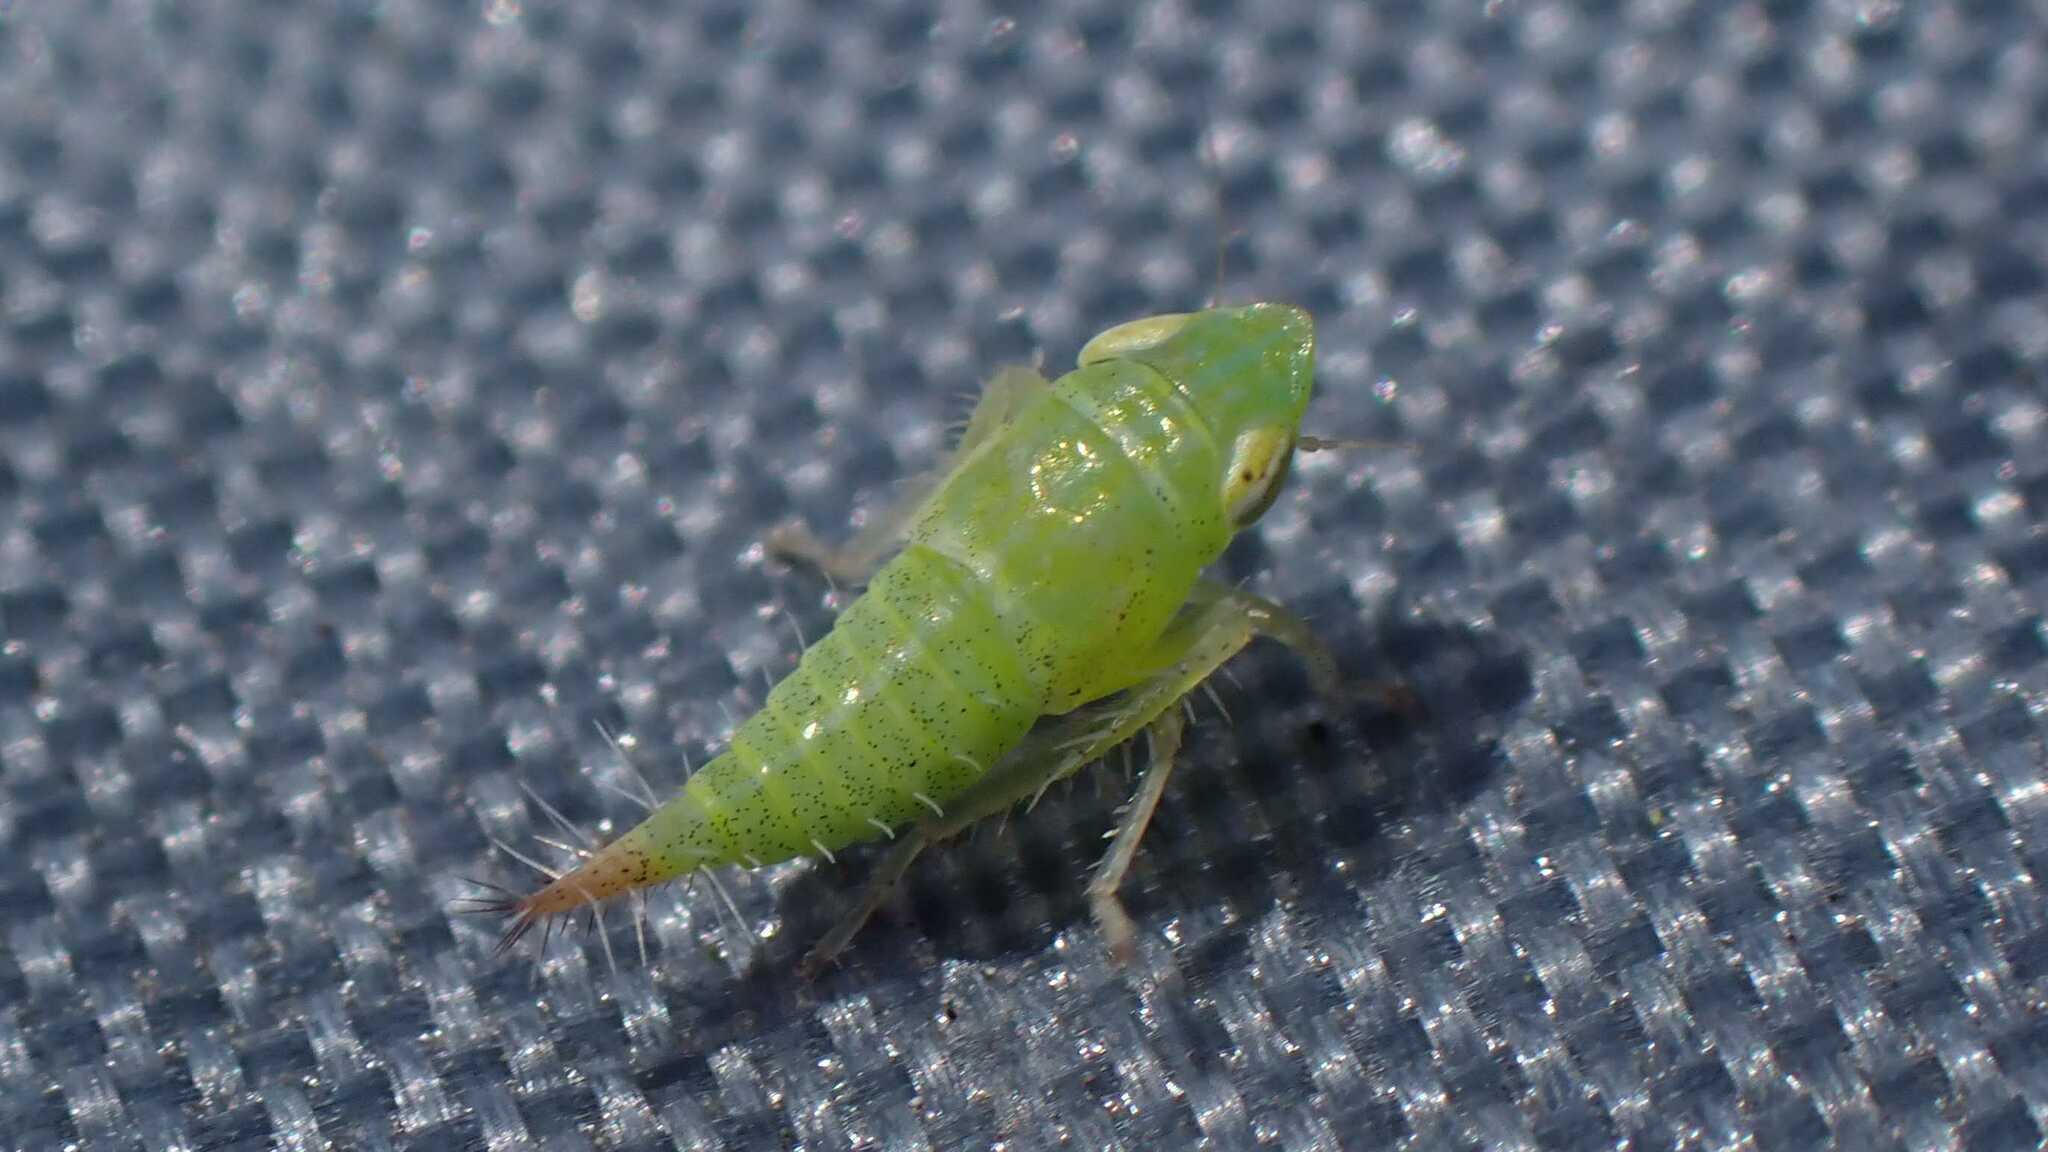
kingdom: Animalia
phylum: Arthropoda
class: Insecta
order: Hemiptera
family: Cicadellidae
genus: Fieberiella
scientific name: Fieberiella
